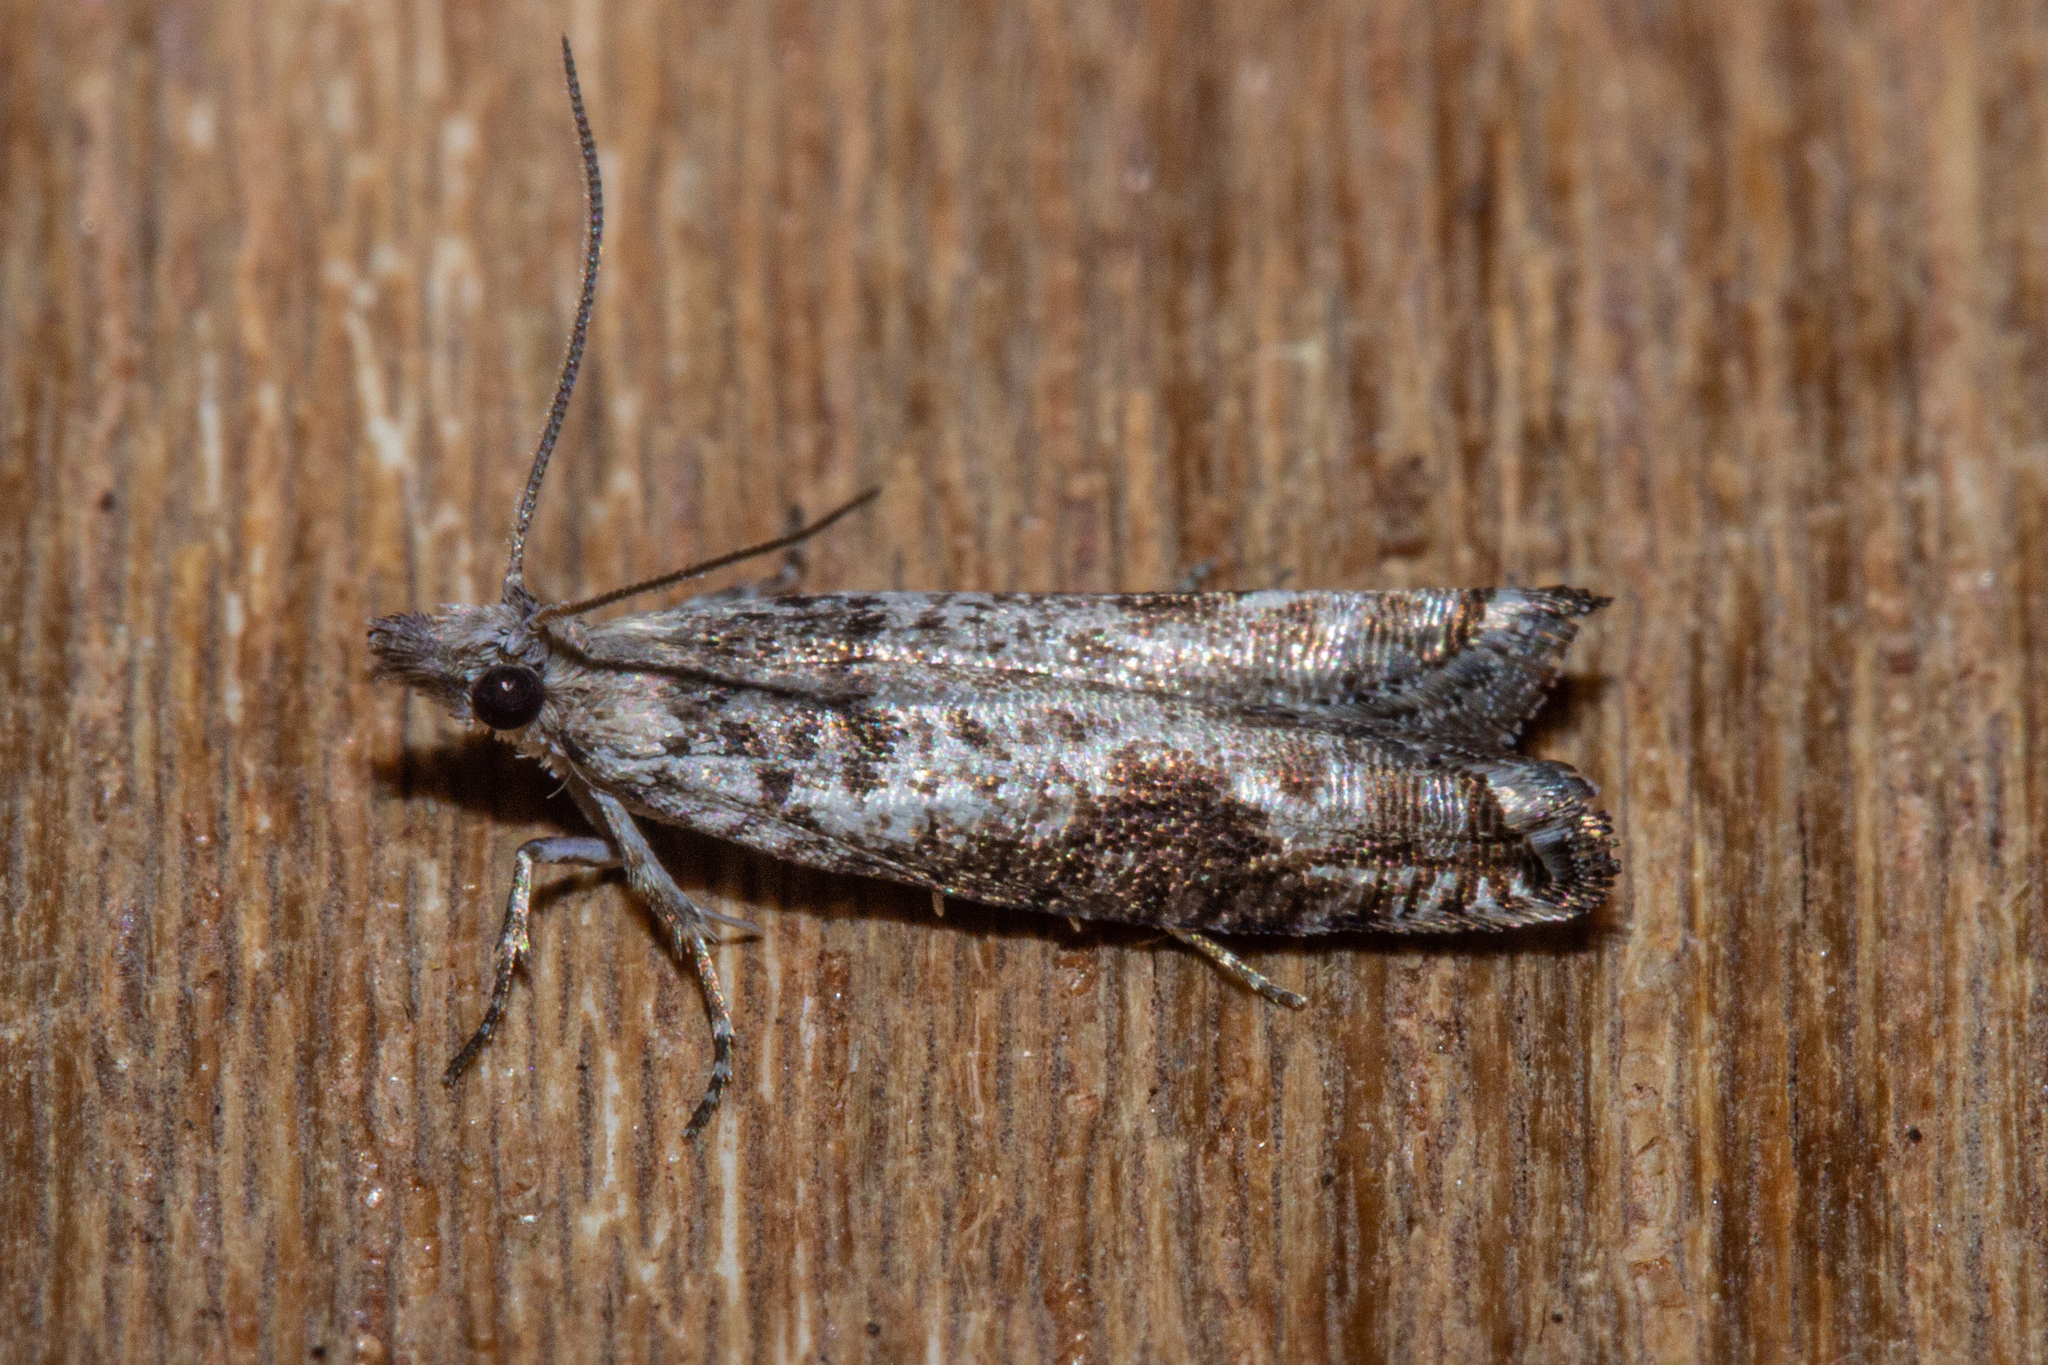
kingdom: Animalia
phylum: Arthropoda
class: Insecta
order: Lepidoptera
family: Tortricidae
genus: Holocola
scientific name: Holocola zopherana
